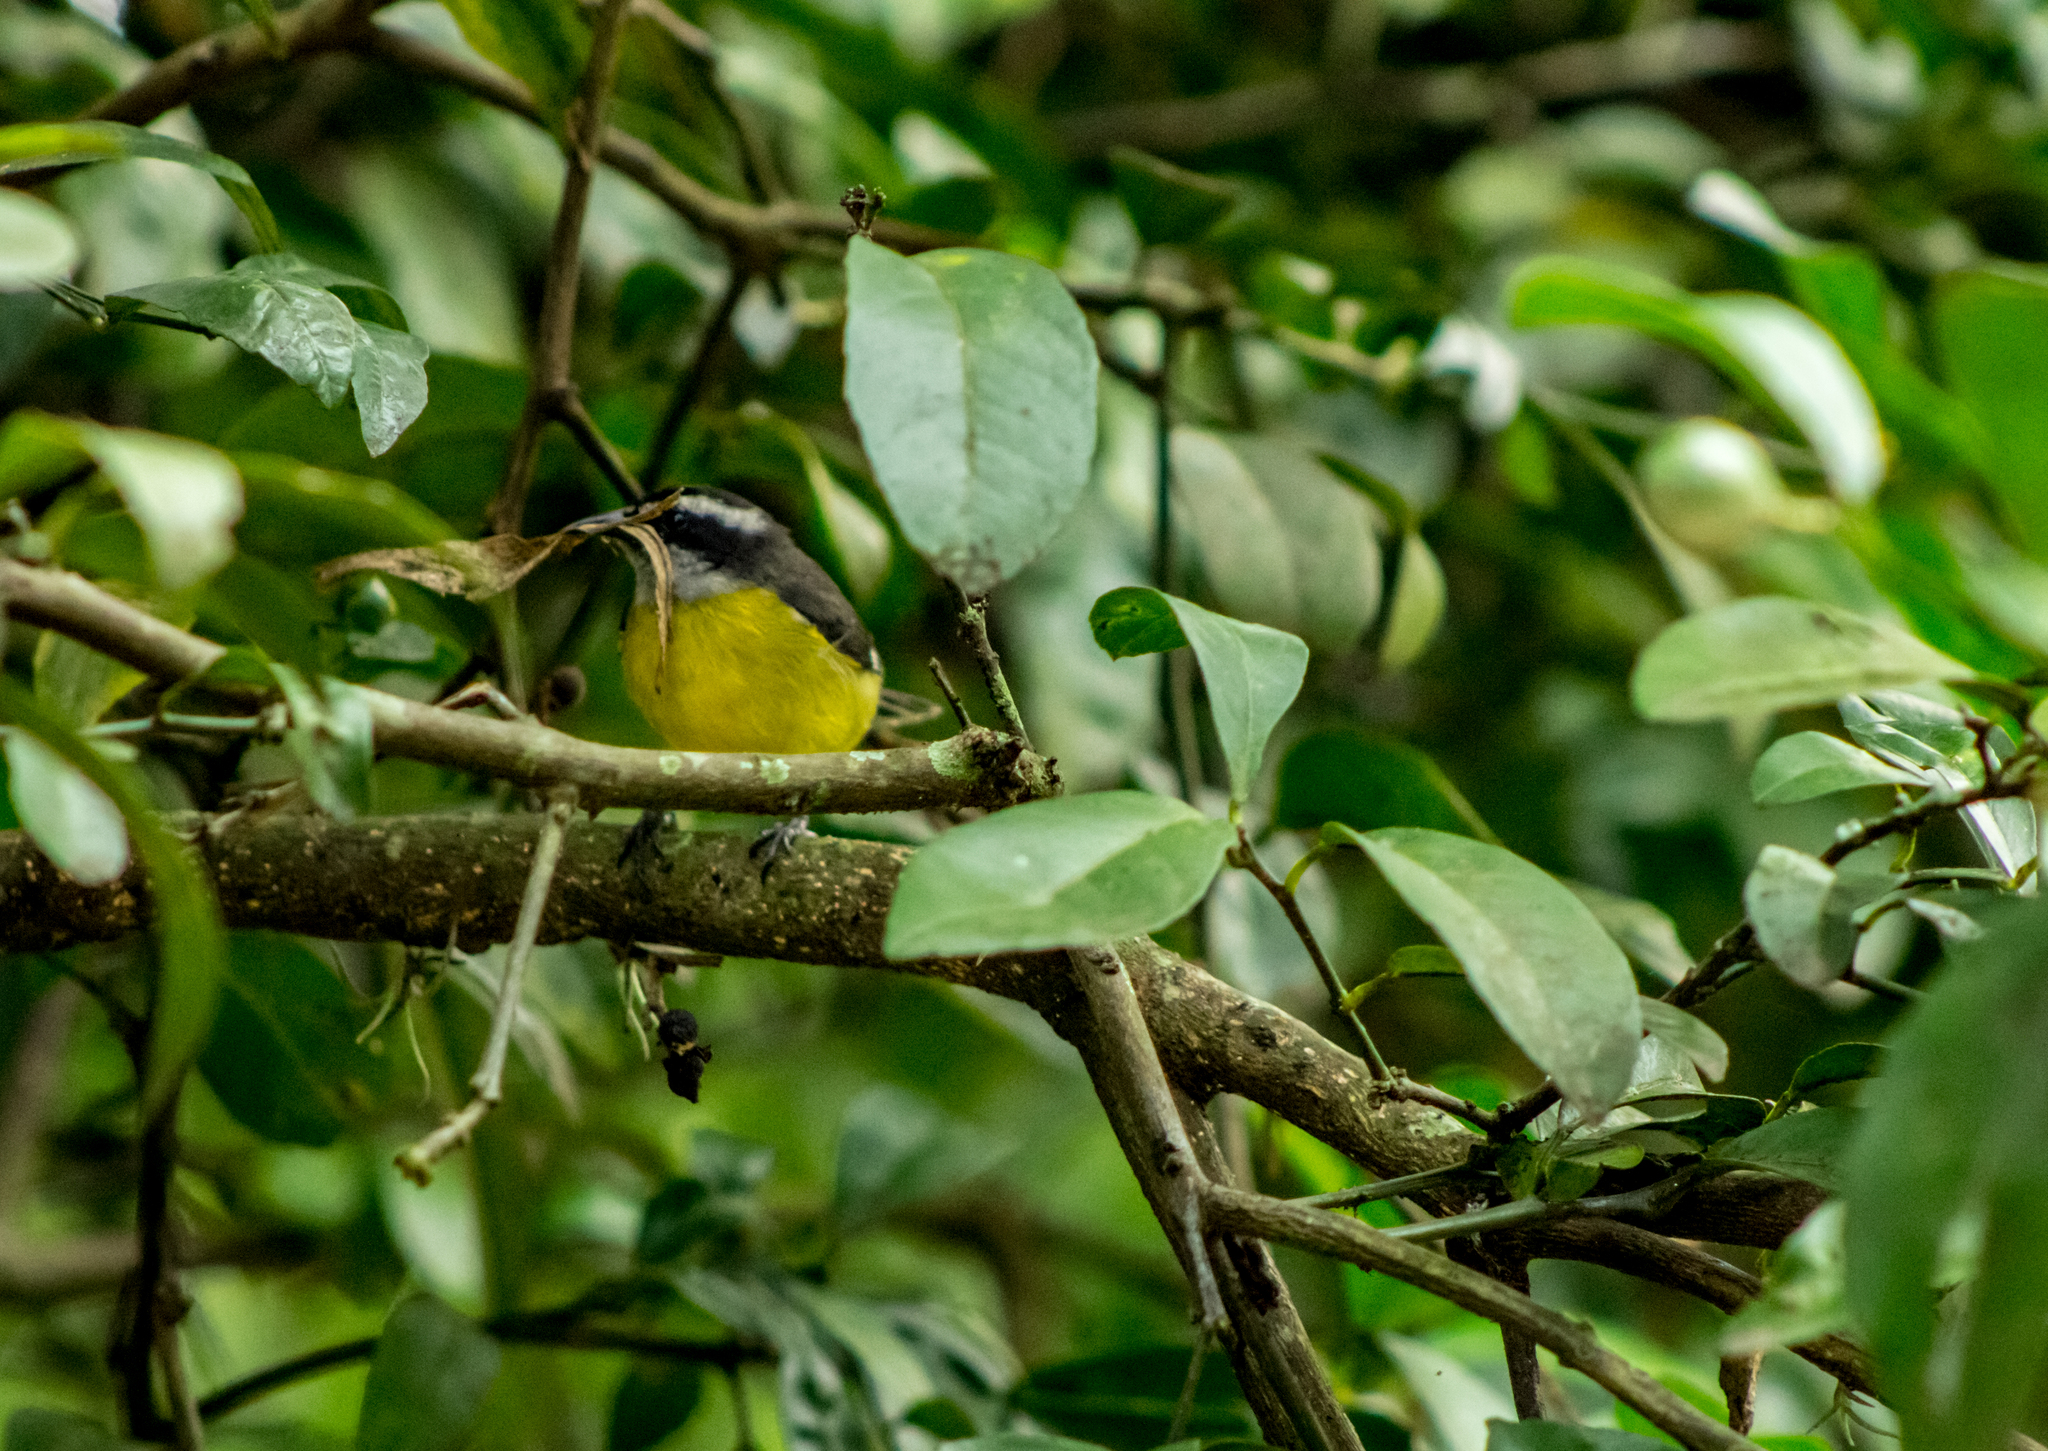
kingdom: Animalia
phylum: Chordata
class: Aves
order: Passeriformes
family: Thraupidae
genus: Coereba
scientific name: Coereba flaveola
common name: Bananaquit
